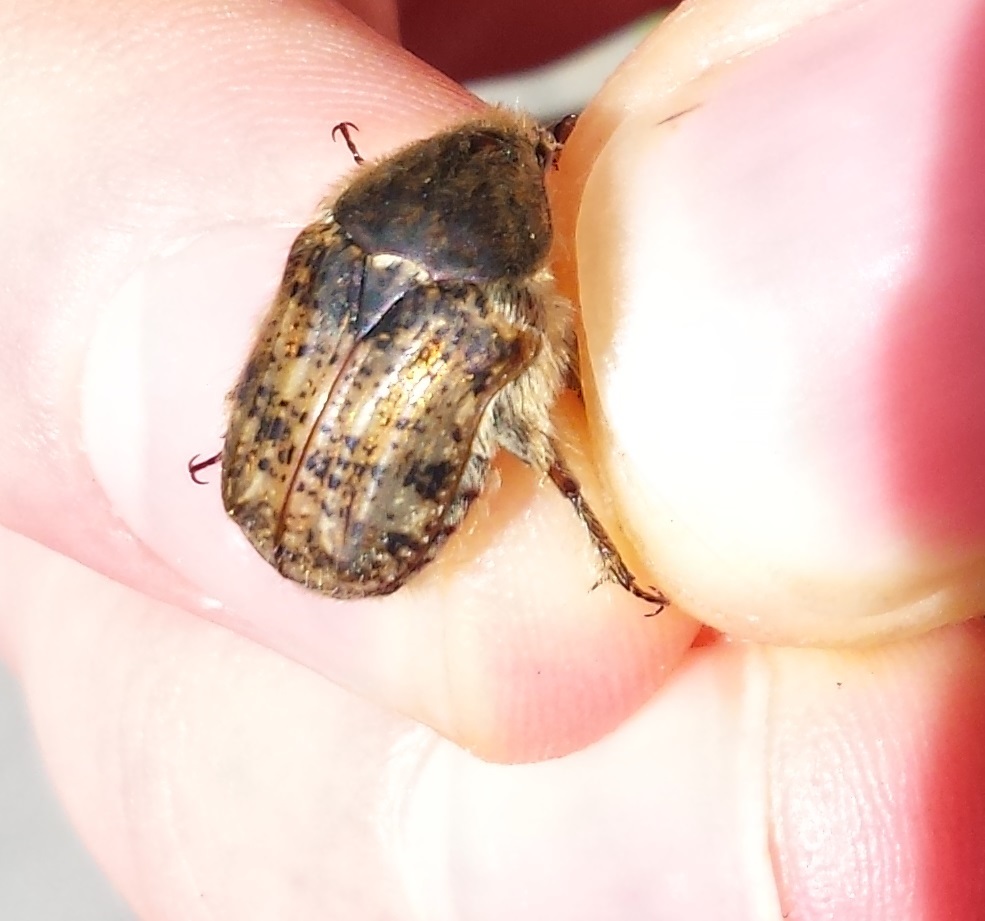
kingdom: Animalia
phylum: Arthropoda
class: Insecta
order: Coleoptera
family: Scarabaeidae
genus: Euphoria
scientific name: Euphoria inda
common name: Bumble flower beetle
